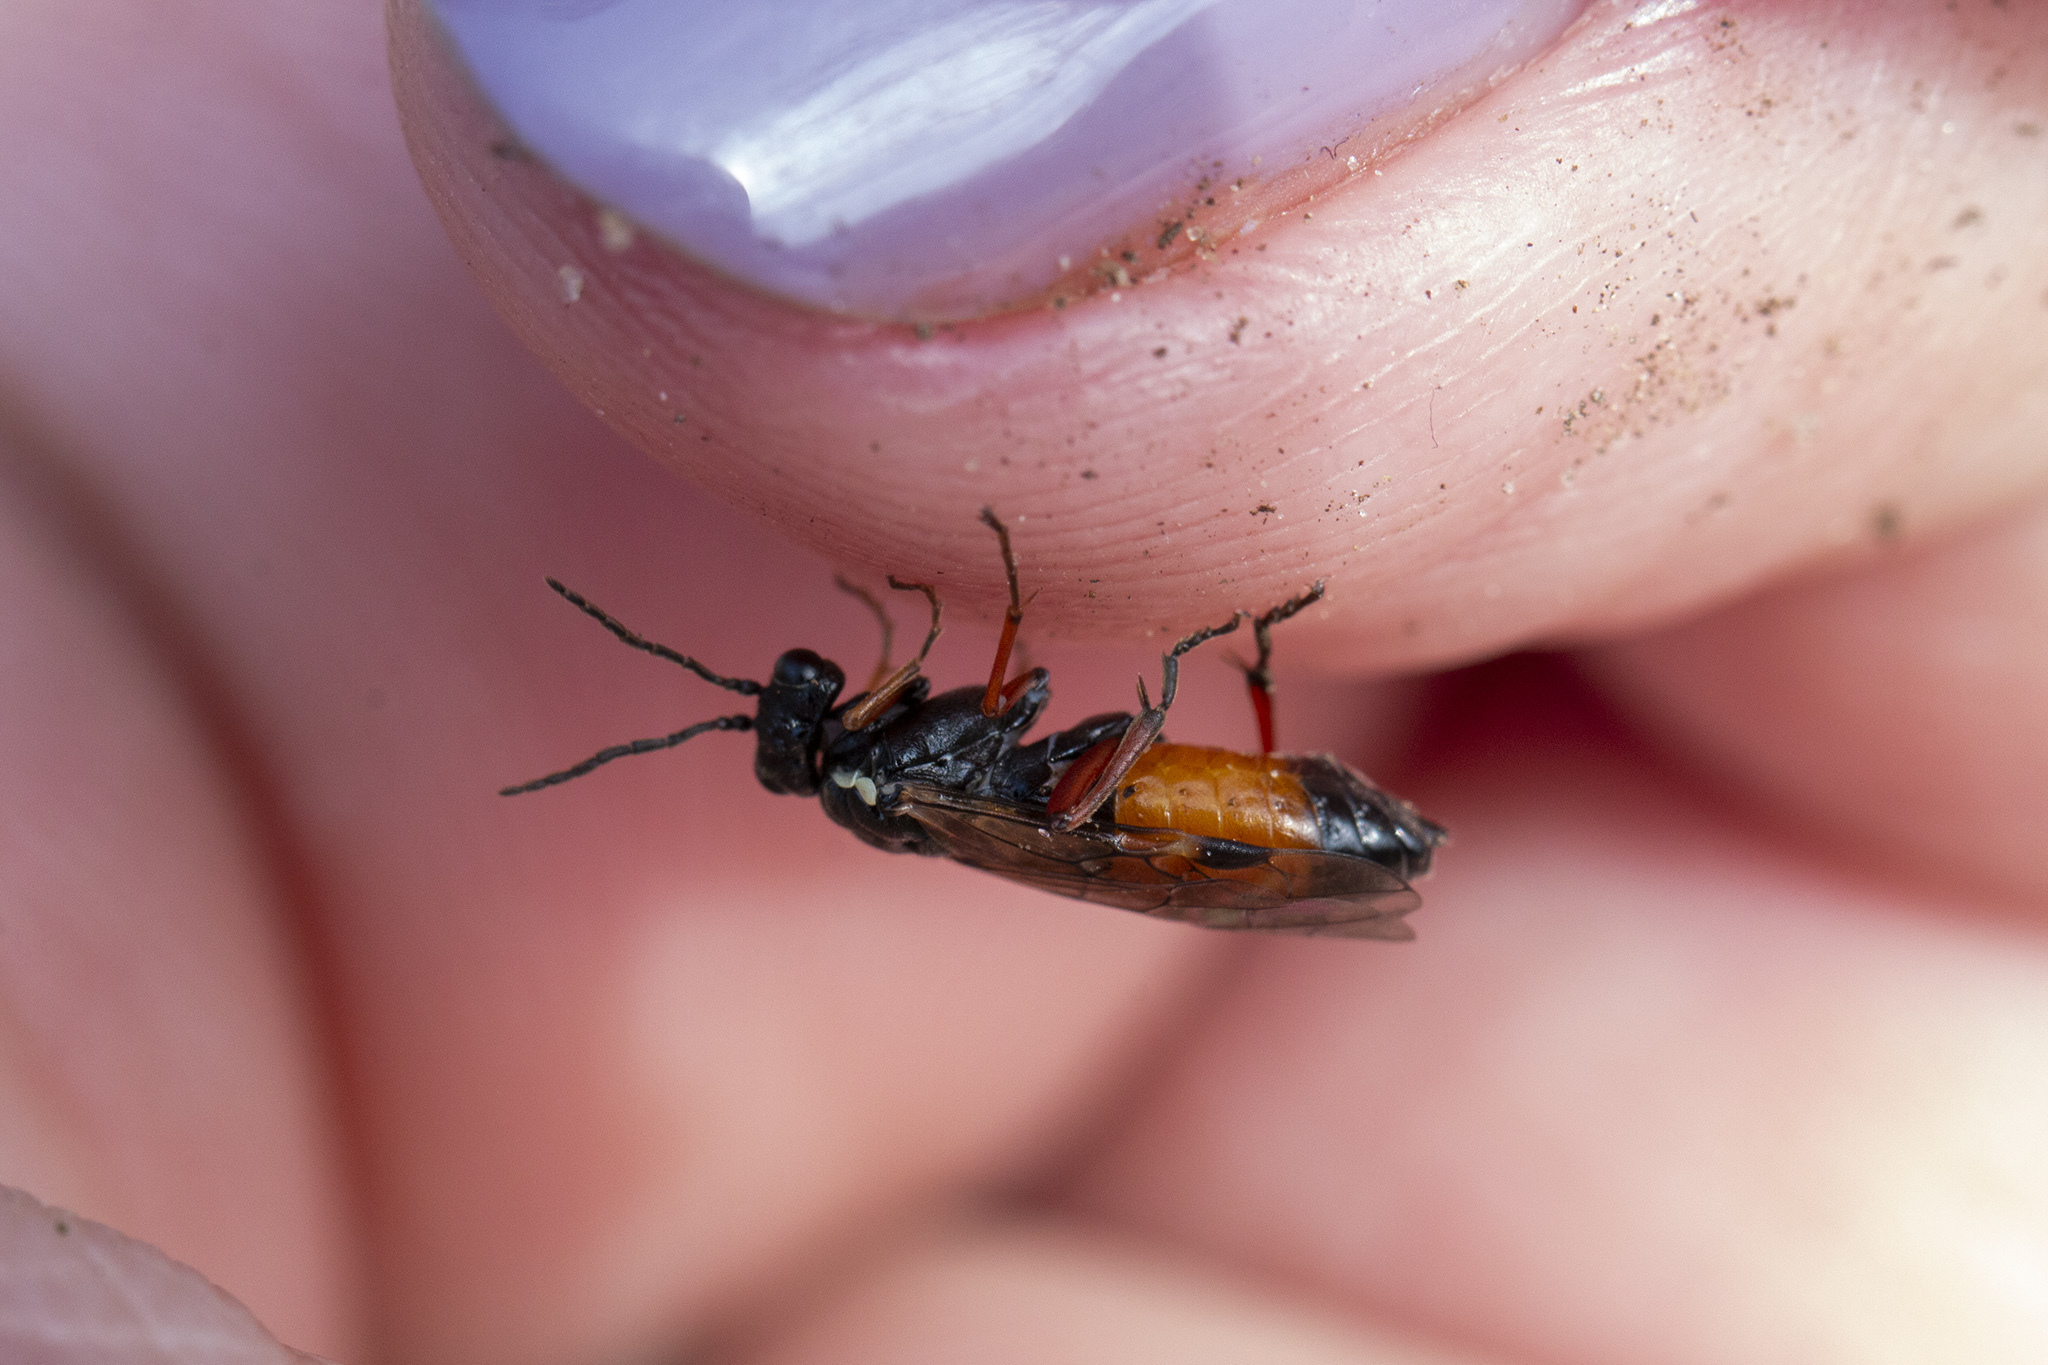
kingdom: Animalia
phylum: Arthropoda
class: Insecta
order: Hymenoptera
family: Tenthredinidae
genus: Aglaostigma
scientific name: Aglaostigma aucupariae
